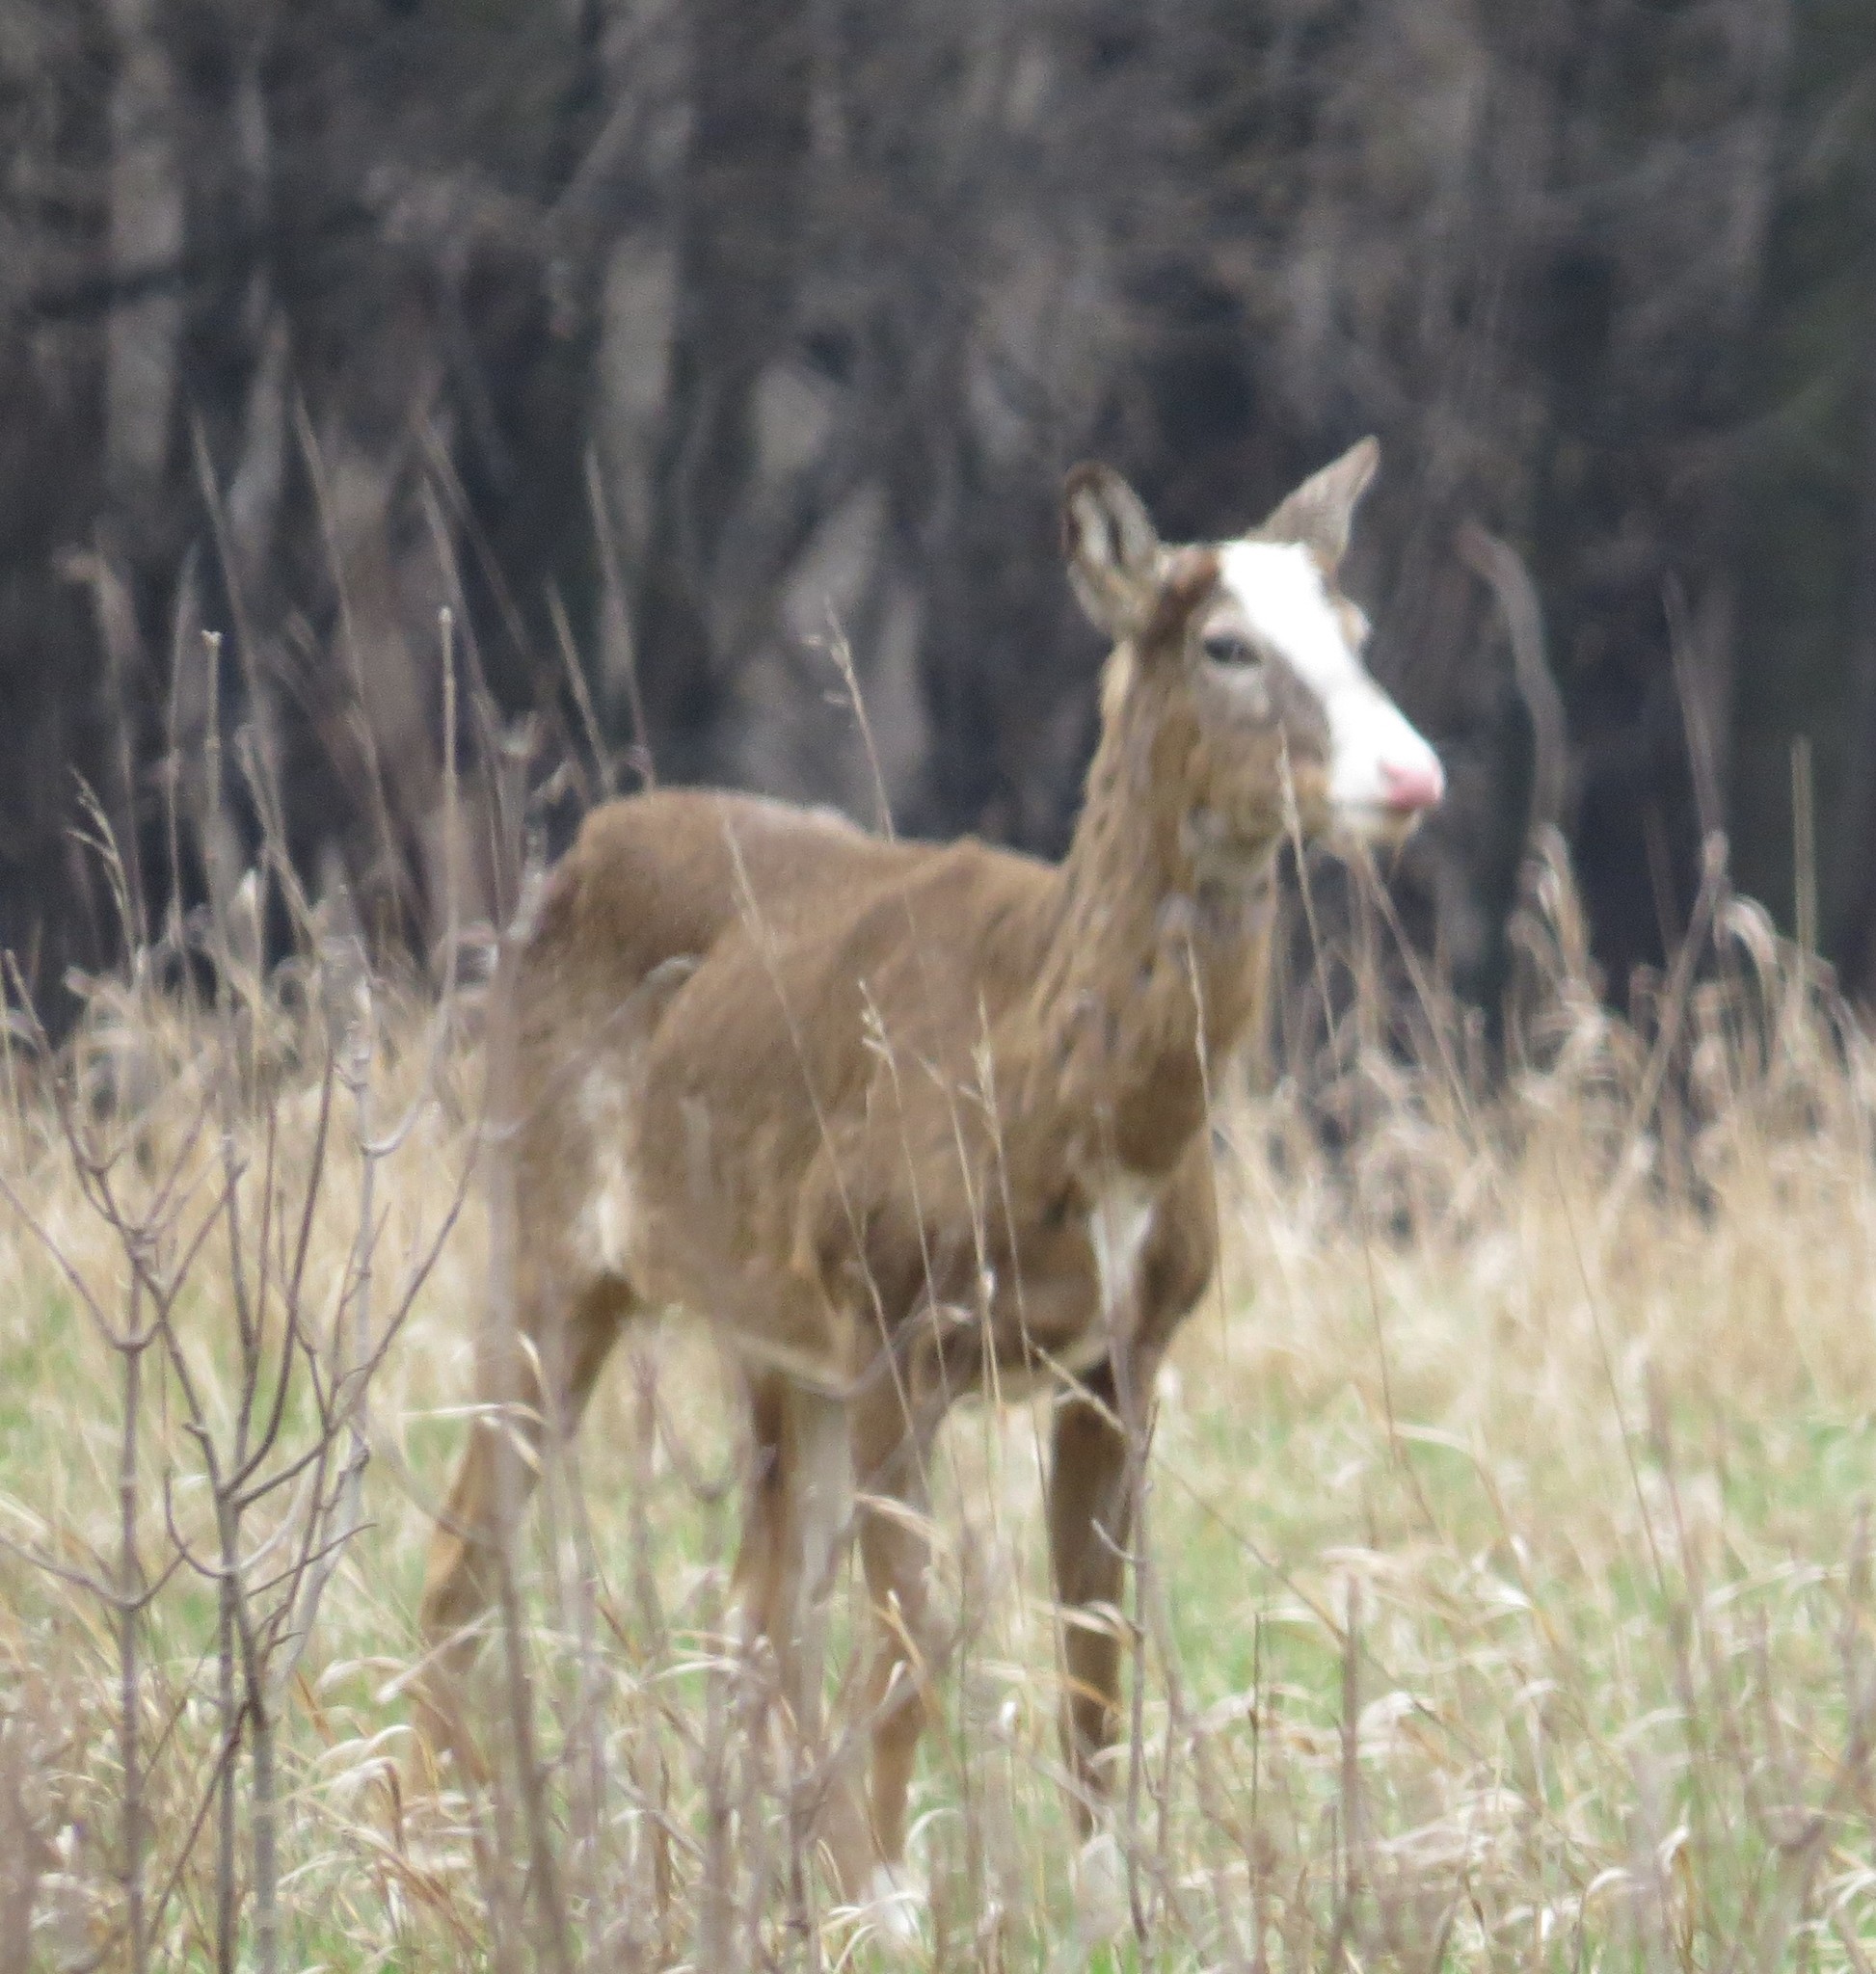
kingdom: Animalia
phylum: Chordata
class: Mammalia
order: Artiodactyla
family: Cervidae
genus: Odocoileus
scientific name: Odocoileus virginianus
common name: White-tailed deer
